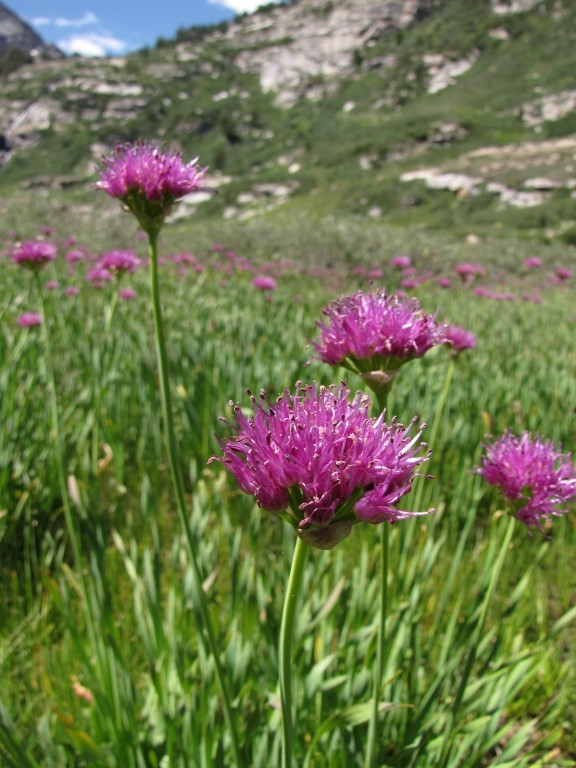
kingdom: Plantae
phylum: Tracheophyta
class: Liliopsida
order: Asparagales
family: Amaryllidaceae
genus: Allium
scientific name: Allium validum
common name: Pacific mountain onion
